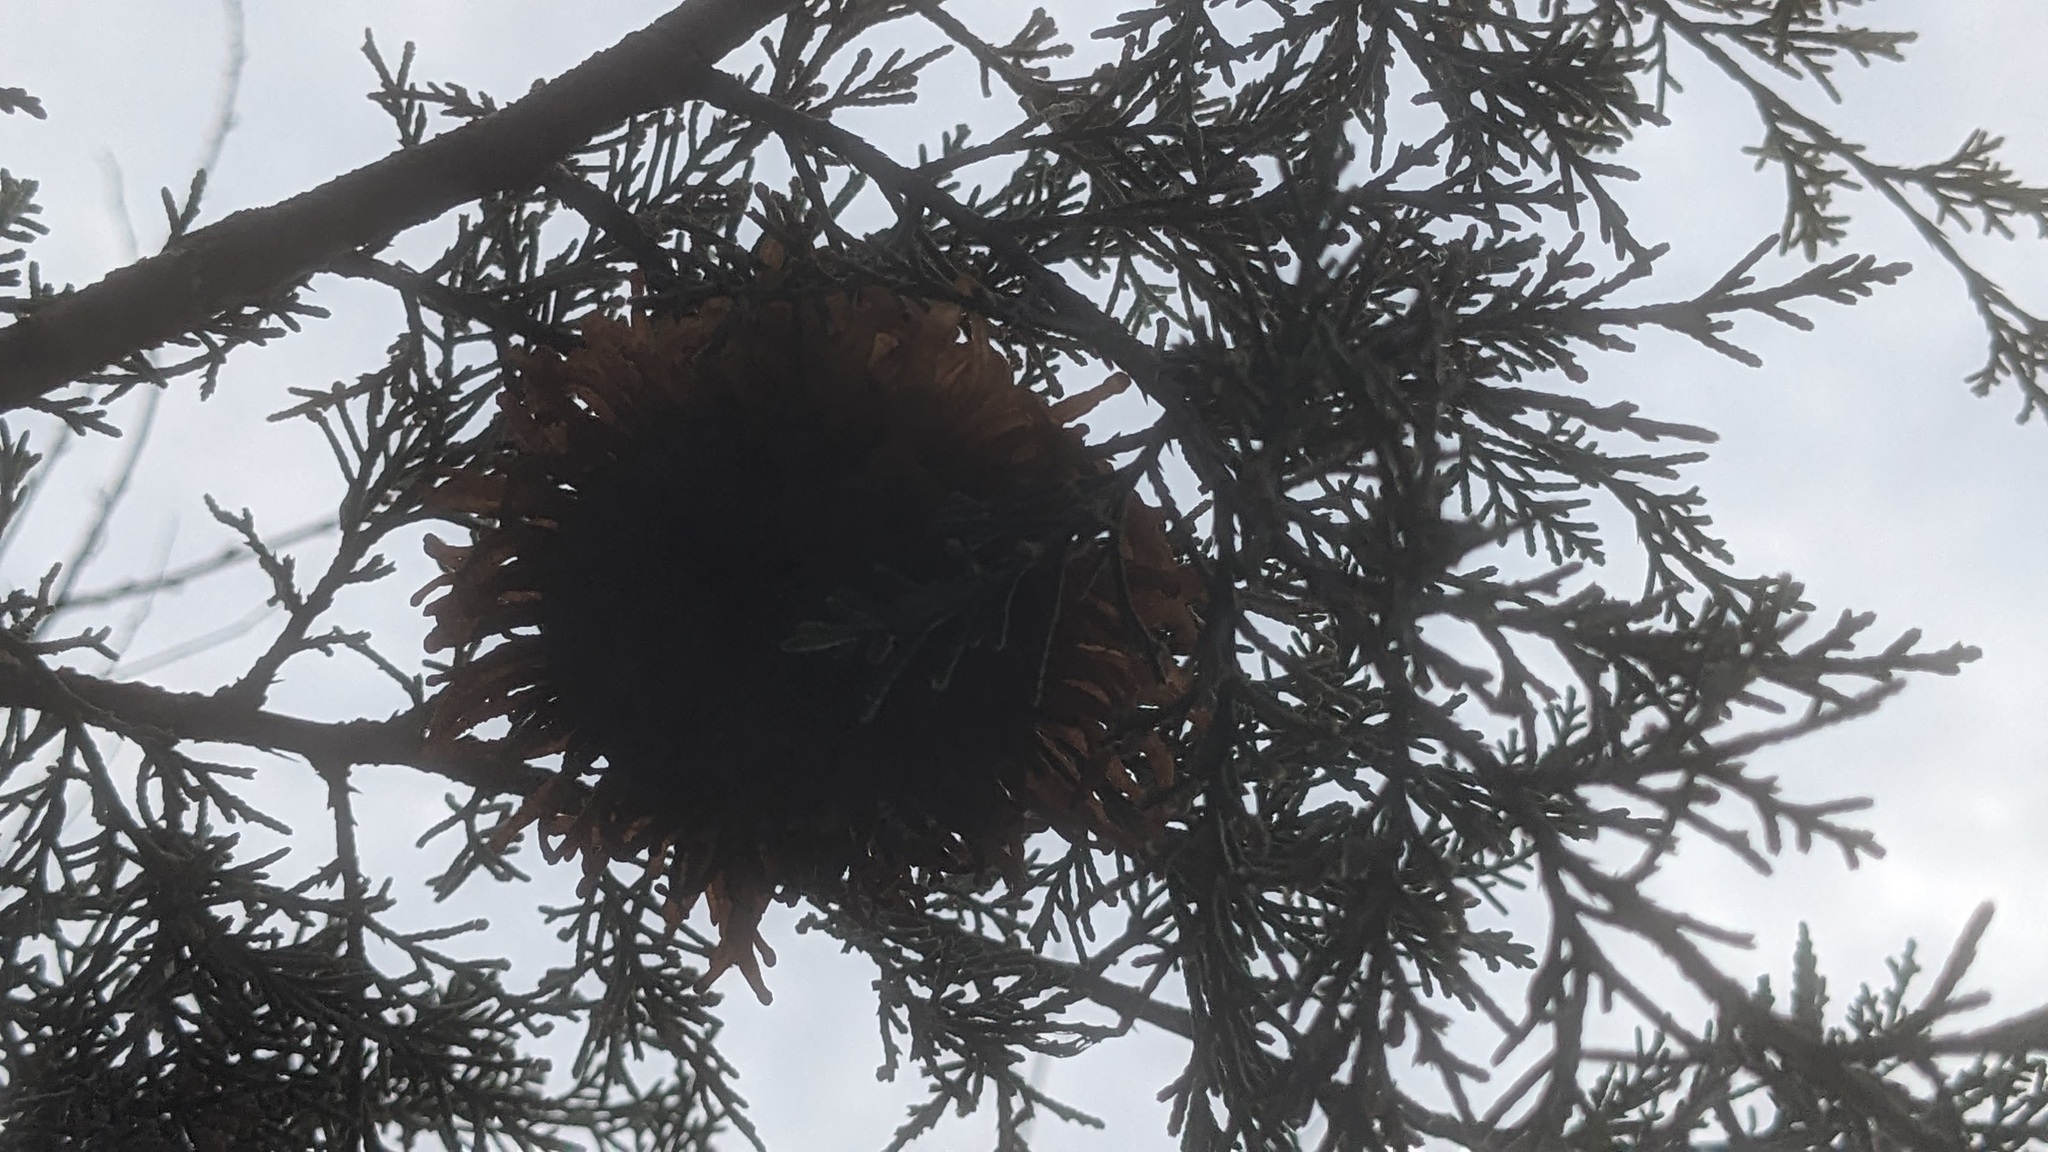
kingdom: Fungi
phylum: Basidiomycota
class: Pucciniomycetes
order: Pucciniales
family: Gymnosporangiaceae
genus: Gymnosporangium
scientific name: Gymnosporangium juniperi-virginianae
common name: Juniper-apple rust
